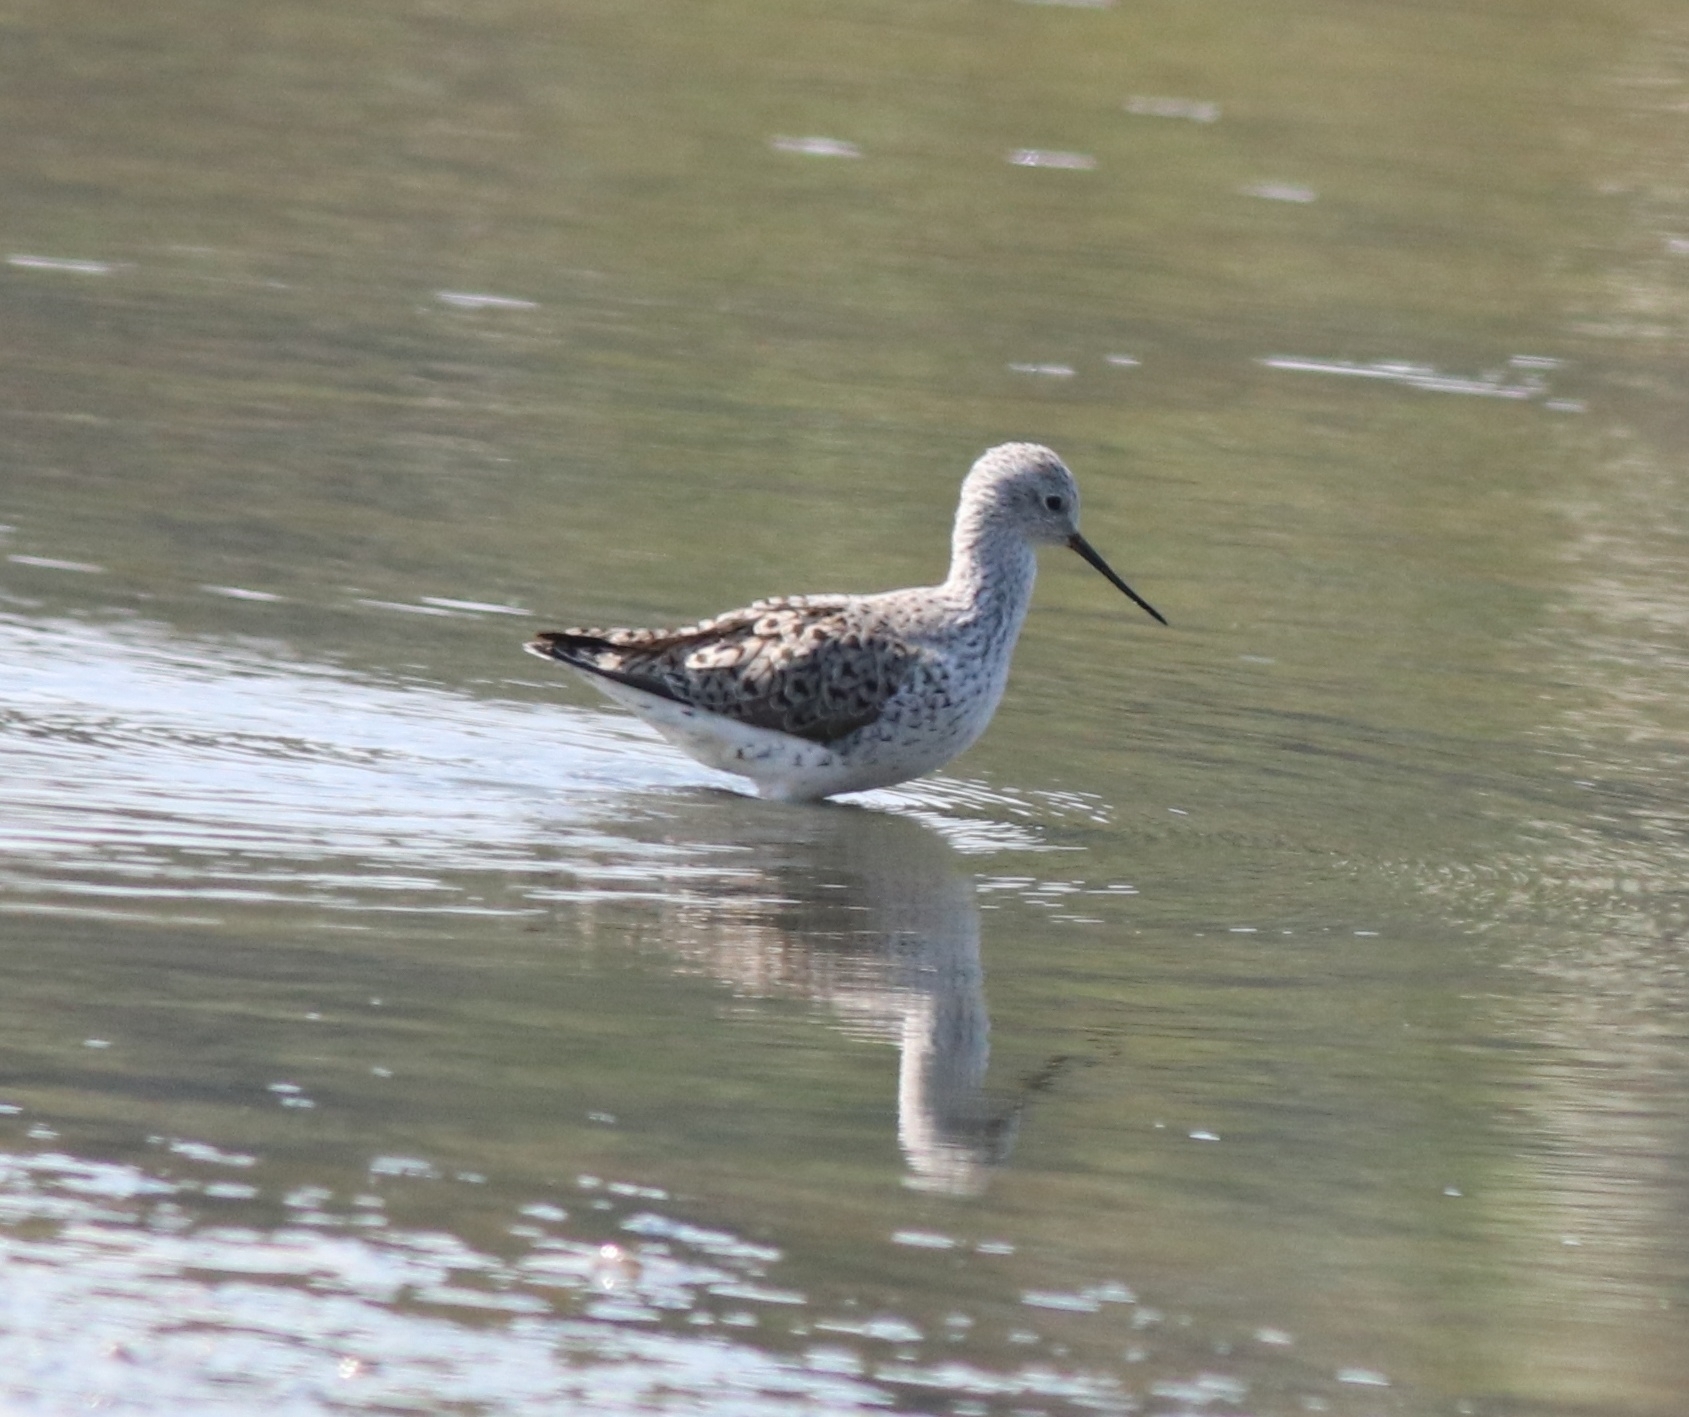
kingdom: Animalia
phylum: Chordata
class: Aves
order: Charadriiformes
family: Scolopacidae
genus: Tringa
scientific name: Tringa stagnatilis
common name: Marsh sandpiper
